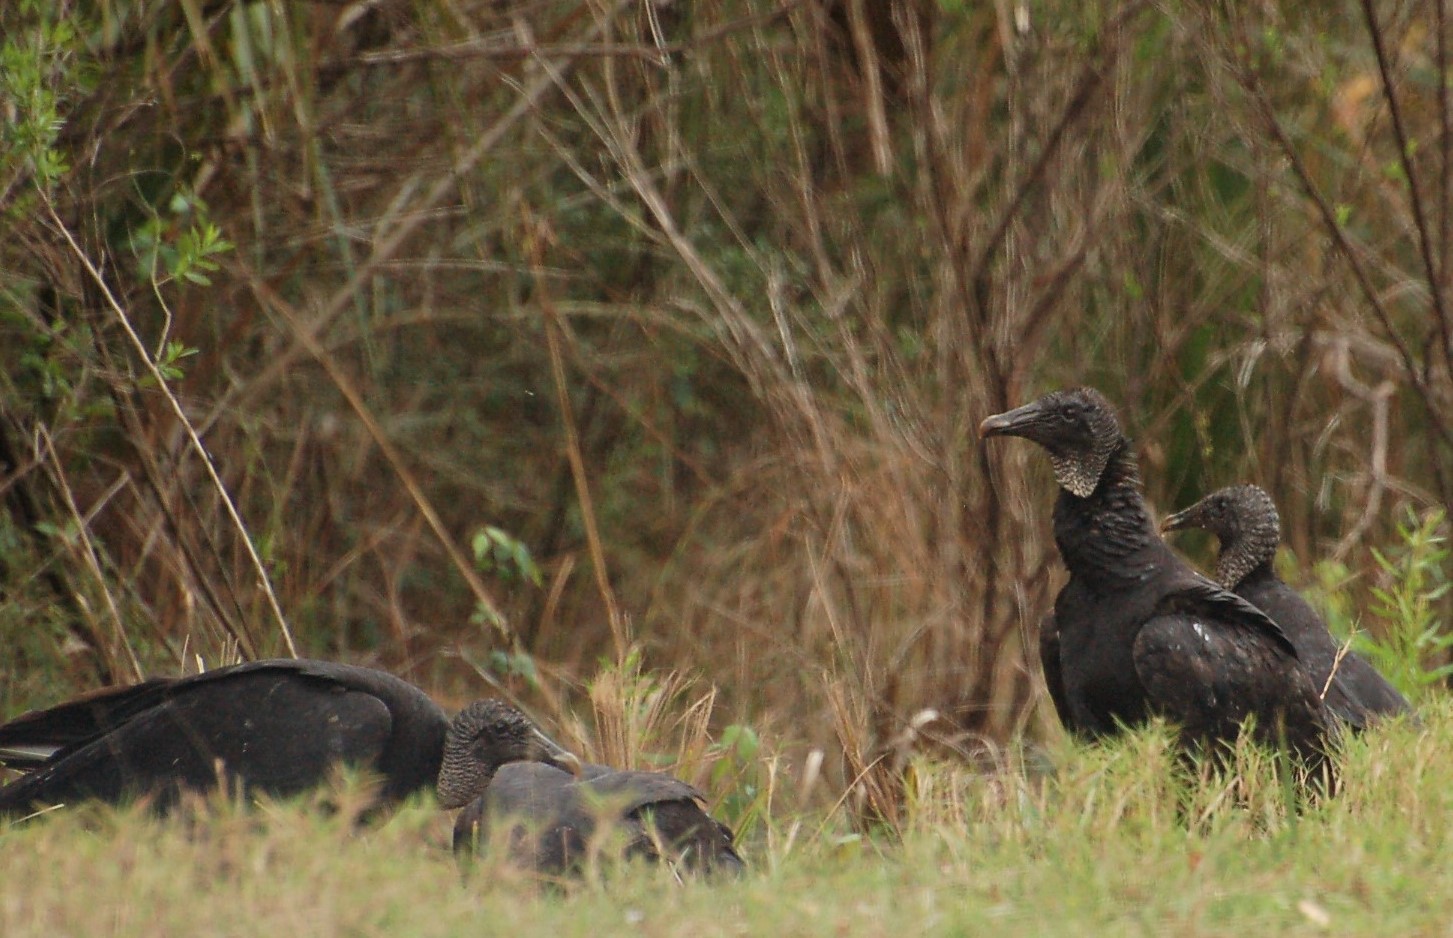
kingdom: Animalia
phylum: Chordata
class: Aves
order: Accipitriformes
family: Cathartidae
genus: Coragyps
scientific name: Coragyps atratus
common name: Black vulture
